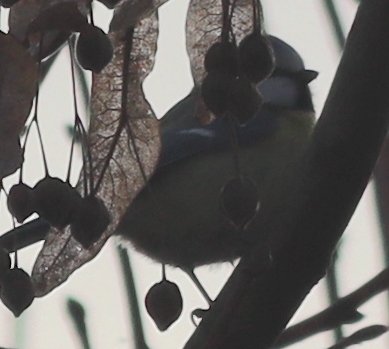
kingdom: Animalia
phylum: Chordata
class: Aves
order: Passeriformes
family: Paridae
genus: Cyanistes
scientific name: Cyanistes caeruleus
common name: Eurasian blue tit
